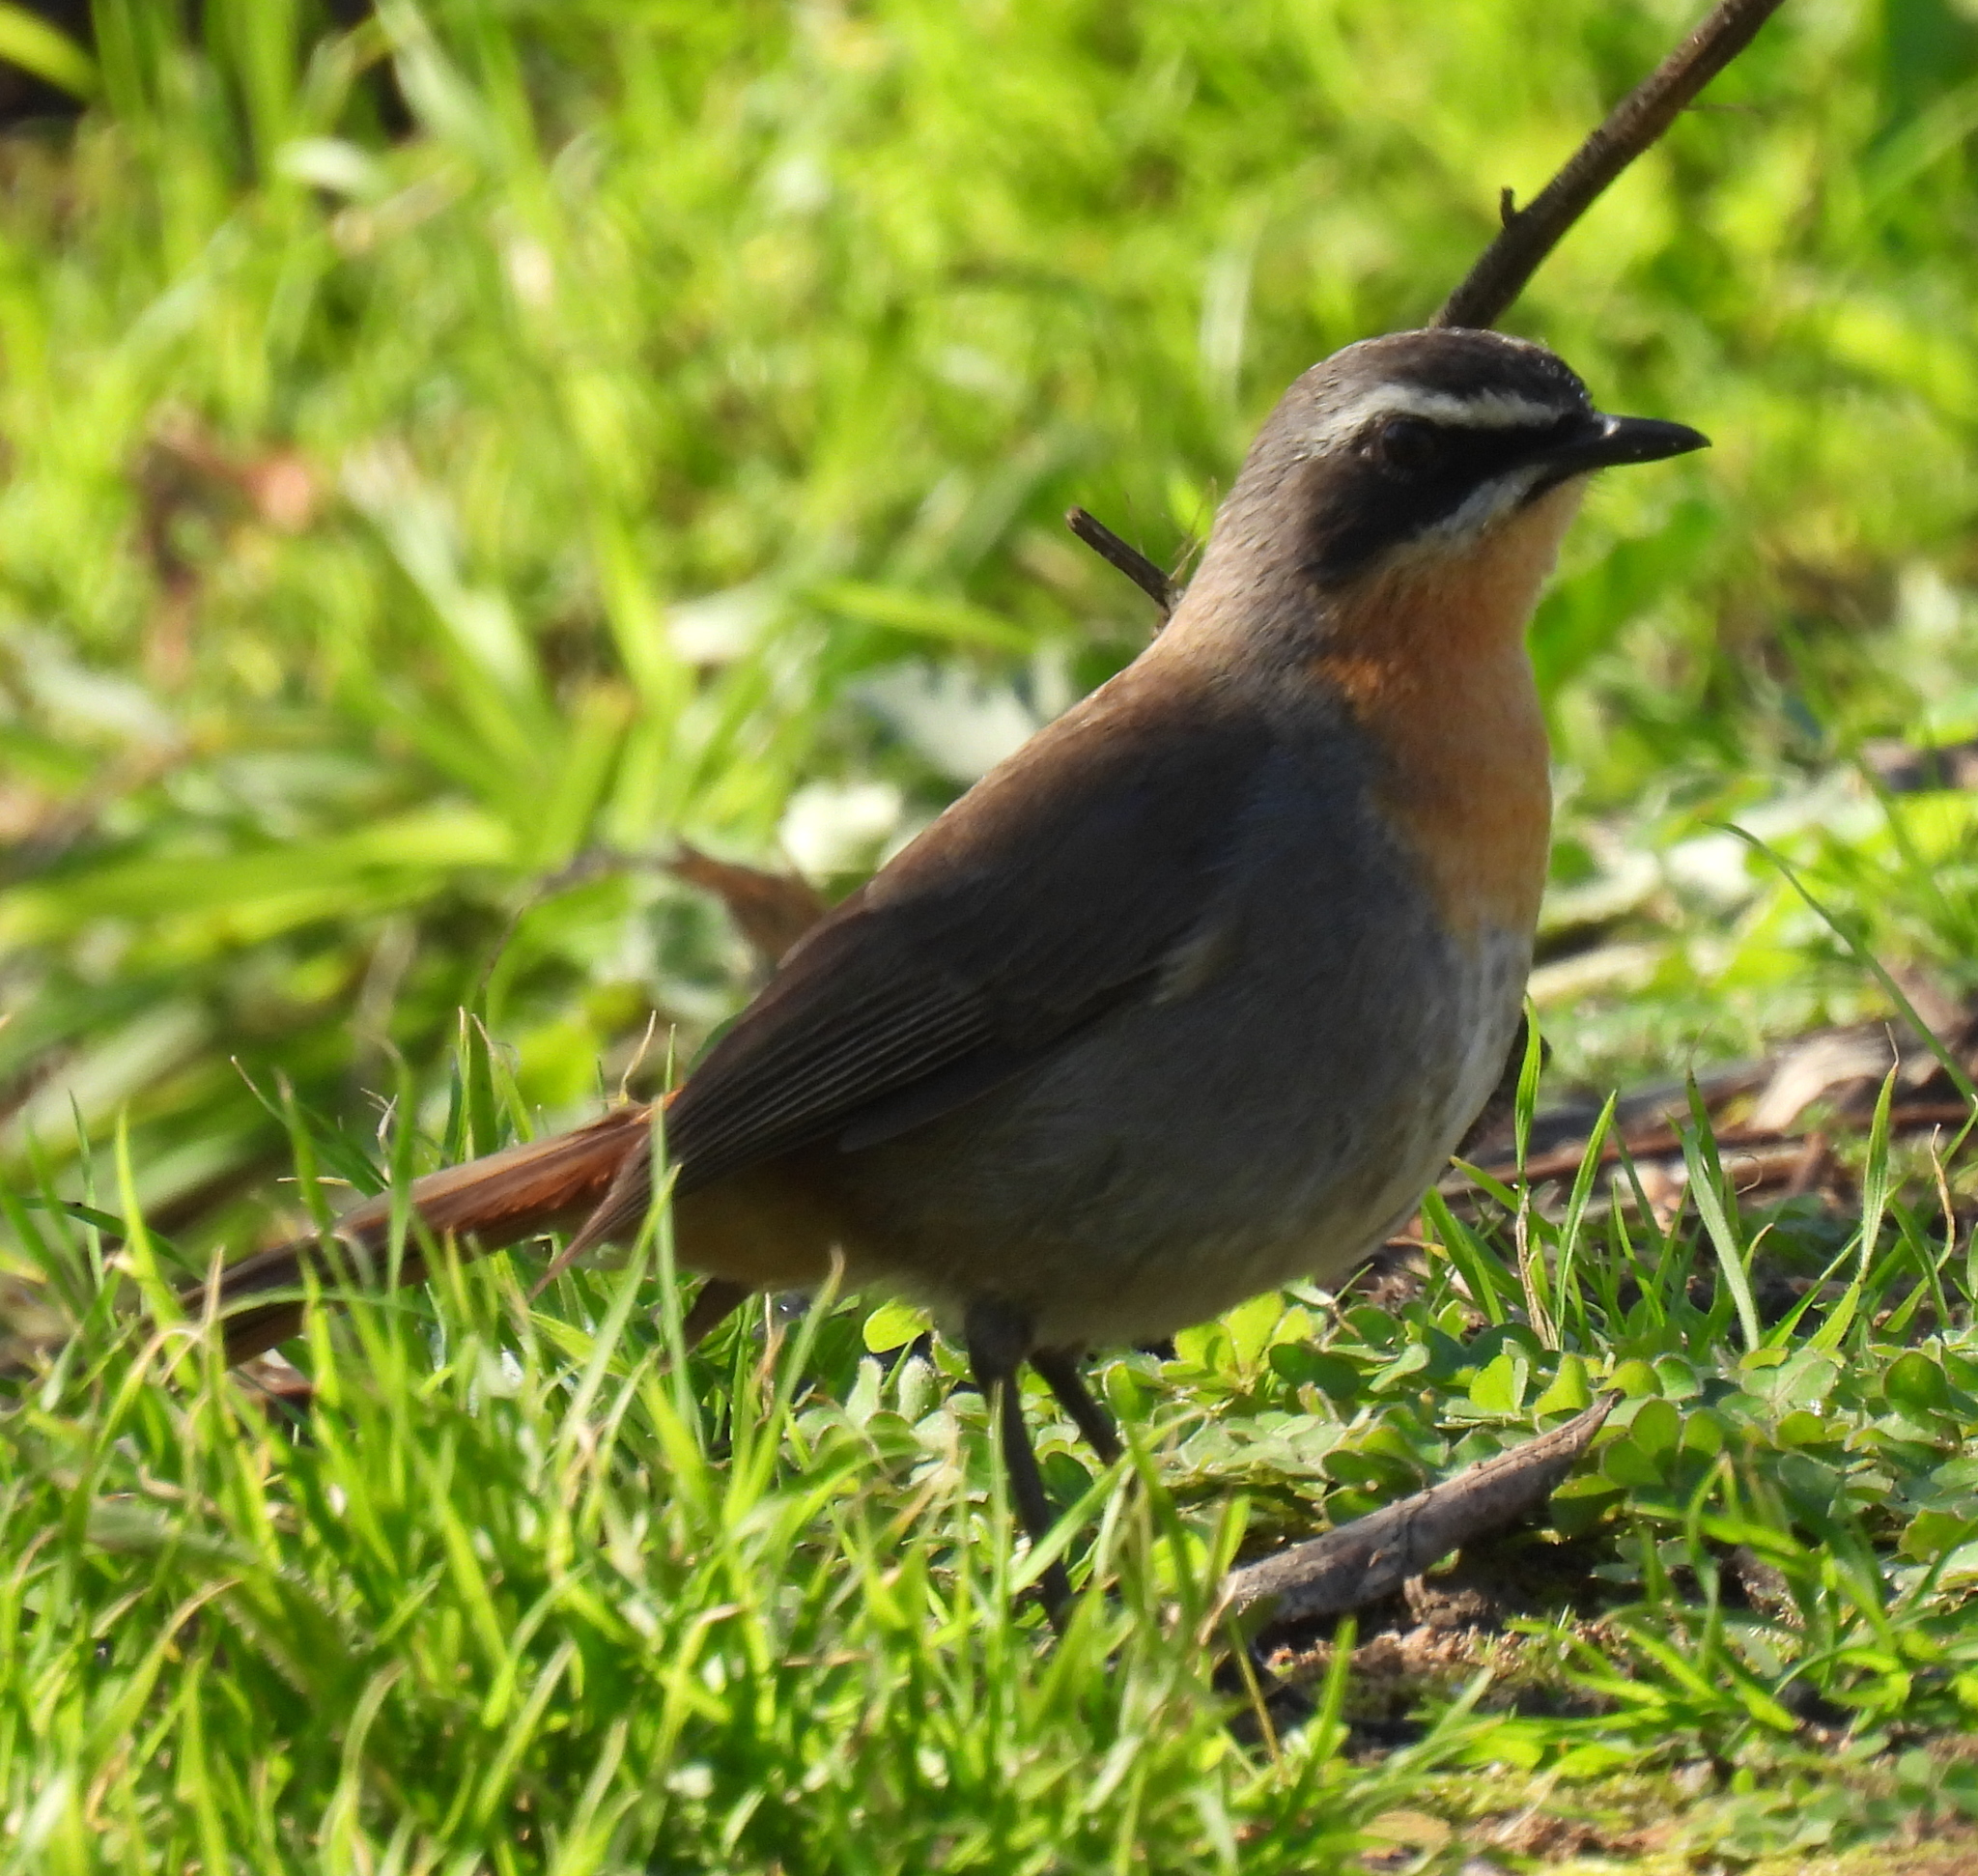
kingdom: Animalia
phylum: Chordata
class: Aves
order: Passeriformes
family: Muscicapidae
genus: Cossypha
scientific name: Cossypha caffra
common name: Cape robin-chat
